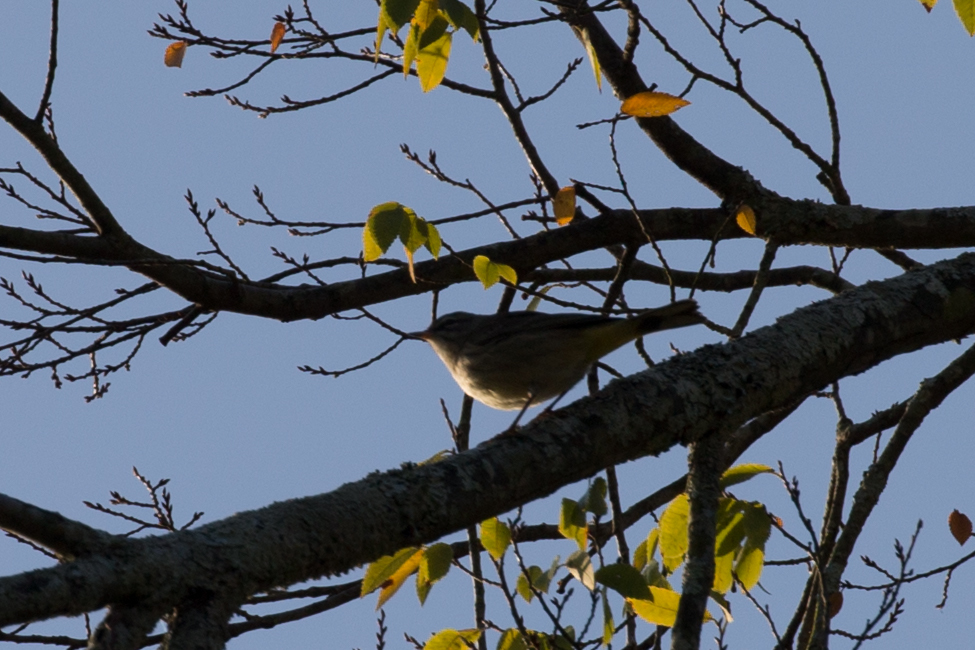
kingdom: Animalia
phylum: Chordata
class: Aves
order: Passeriformes
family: Parulidae
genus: Setophaga
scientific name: Setophaga palmarum
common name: Palm warbler
